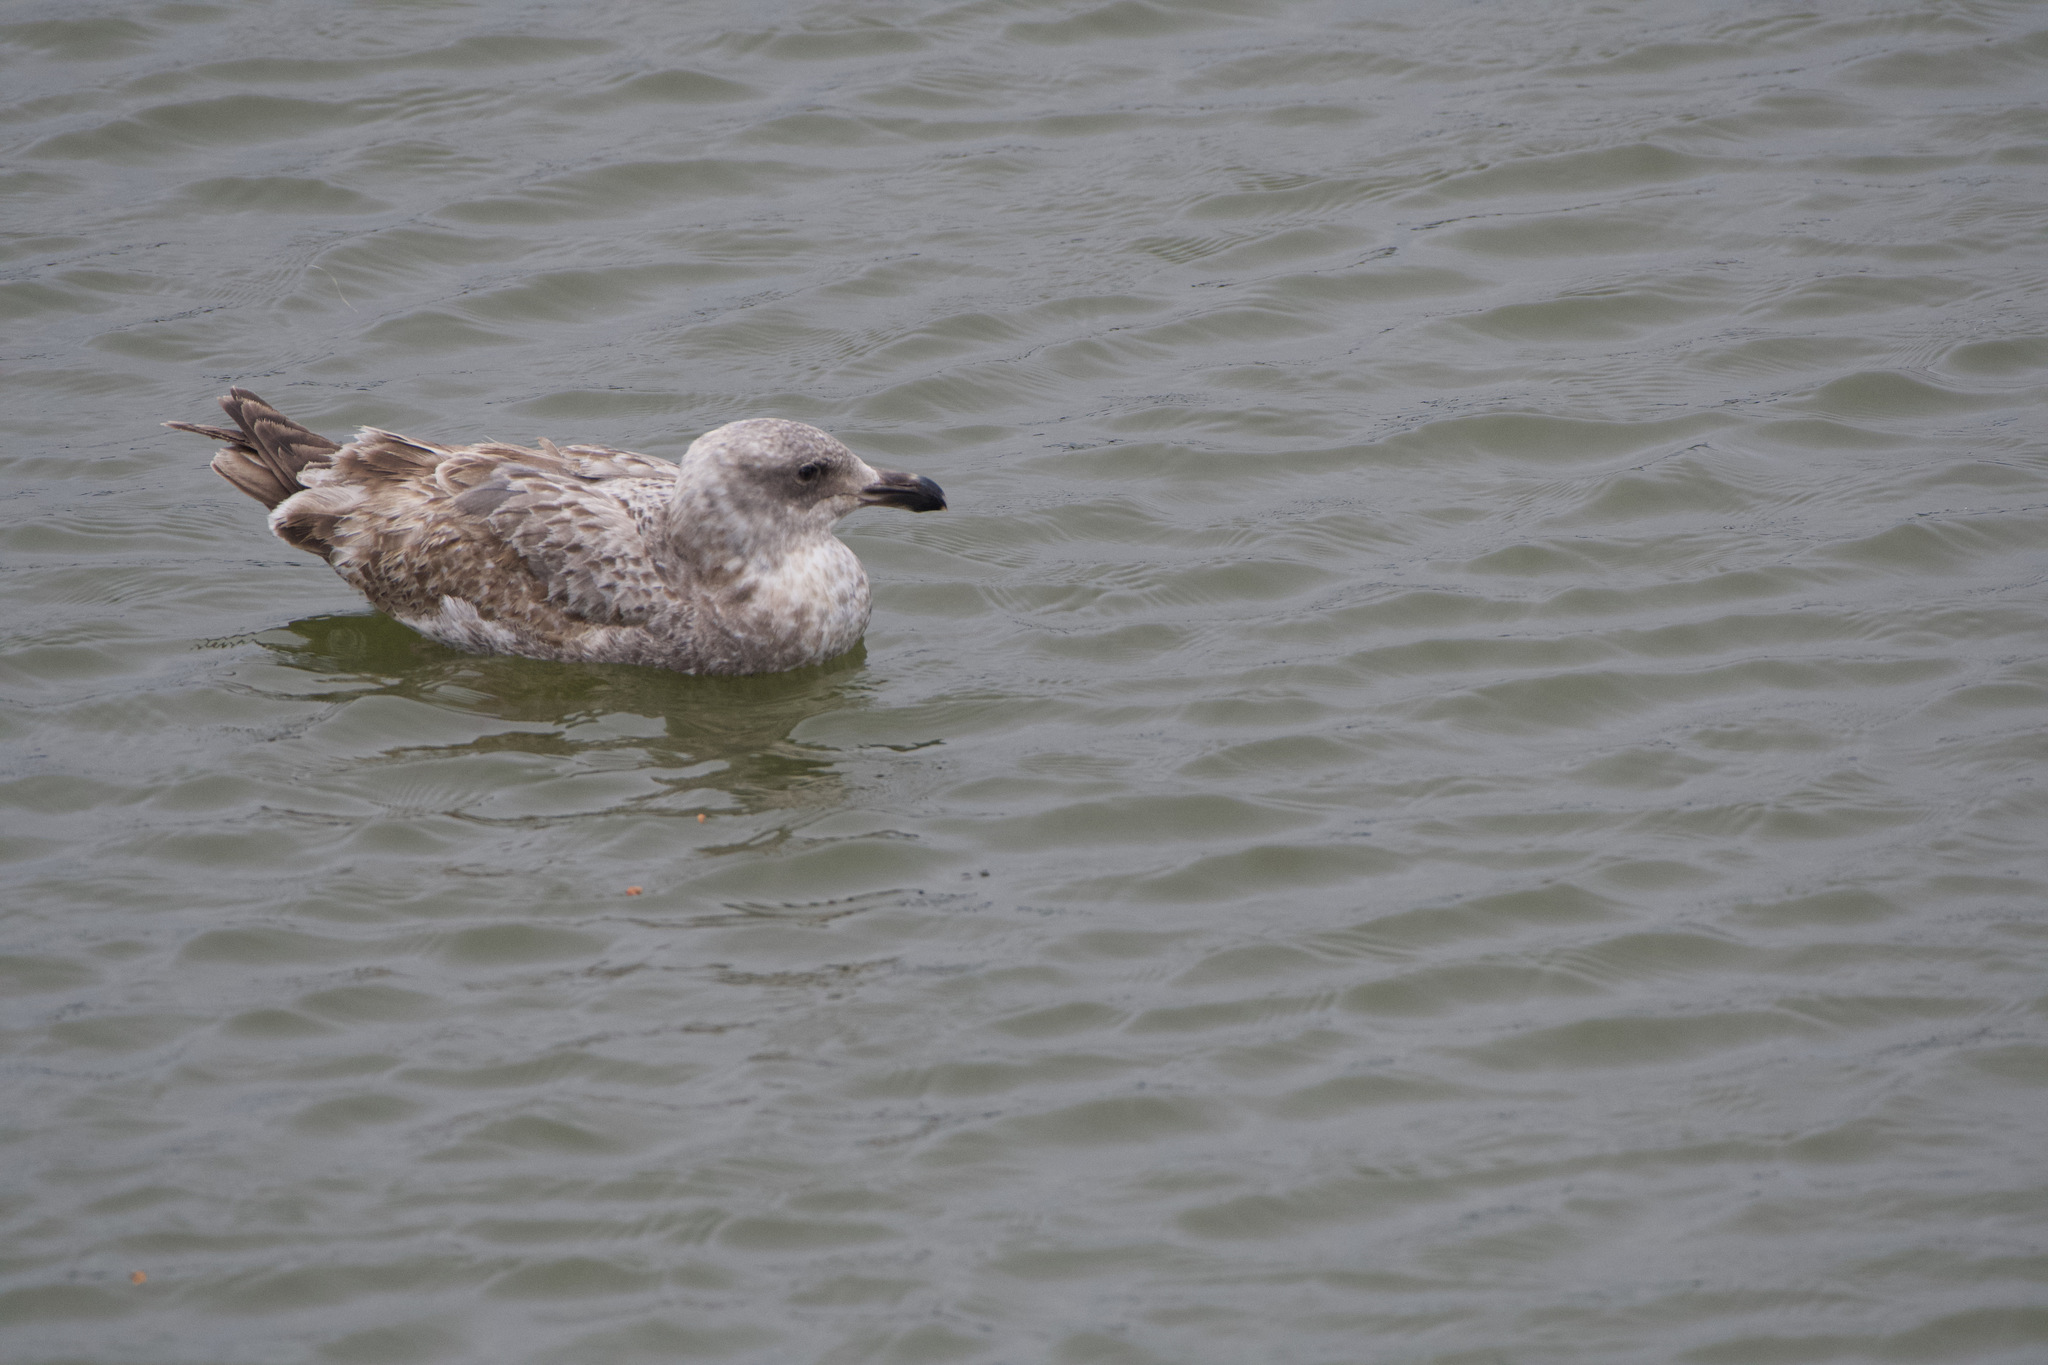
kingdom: Animalia
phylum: Chordata
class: Aves
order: Charadriiformes
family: Laridae
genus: Larus
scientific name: Larus
